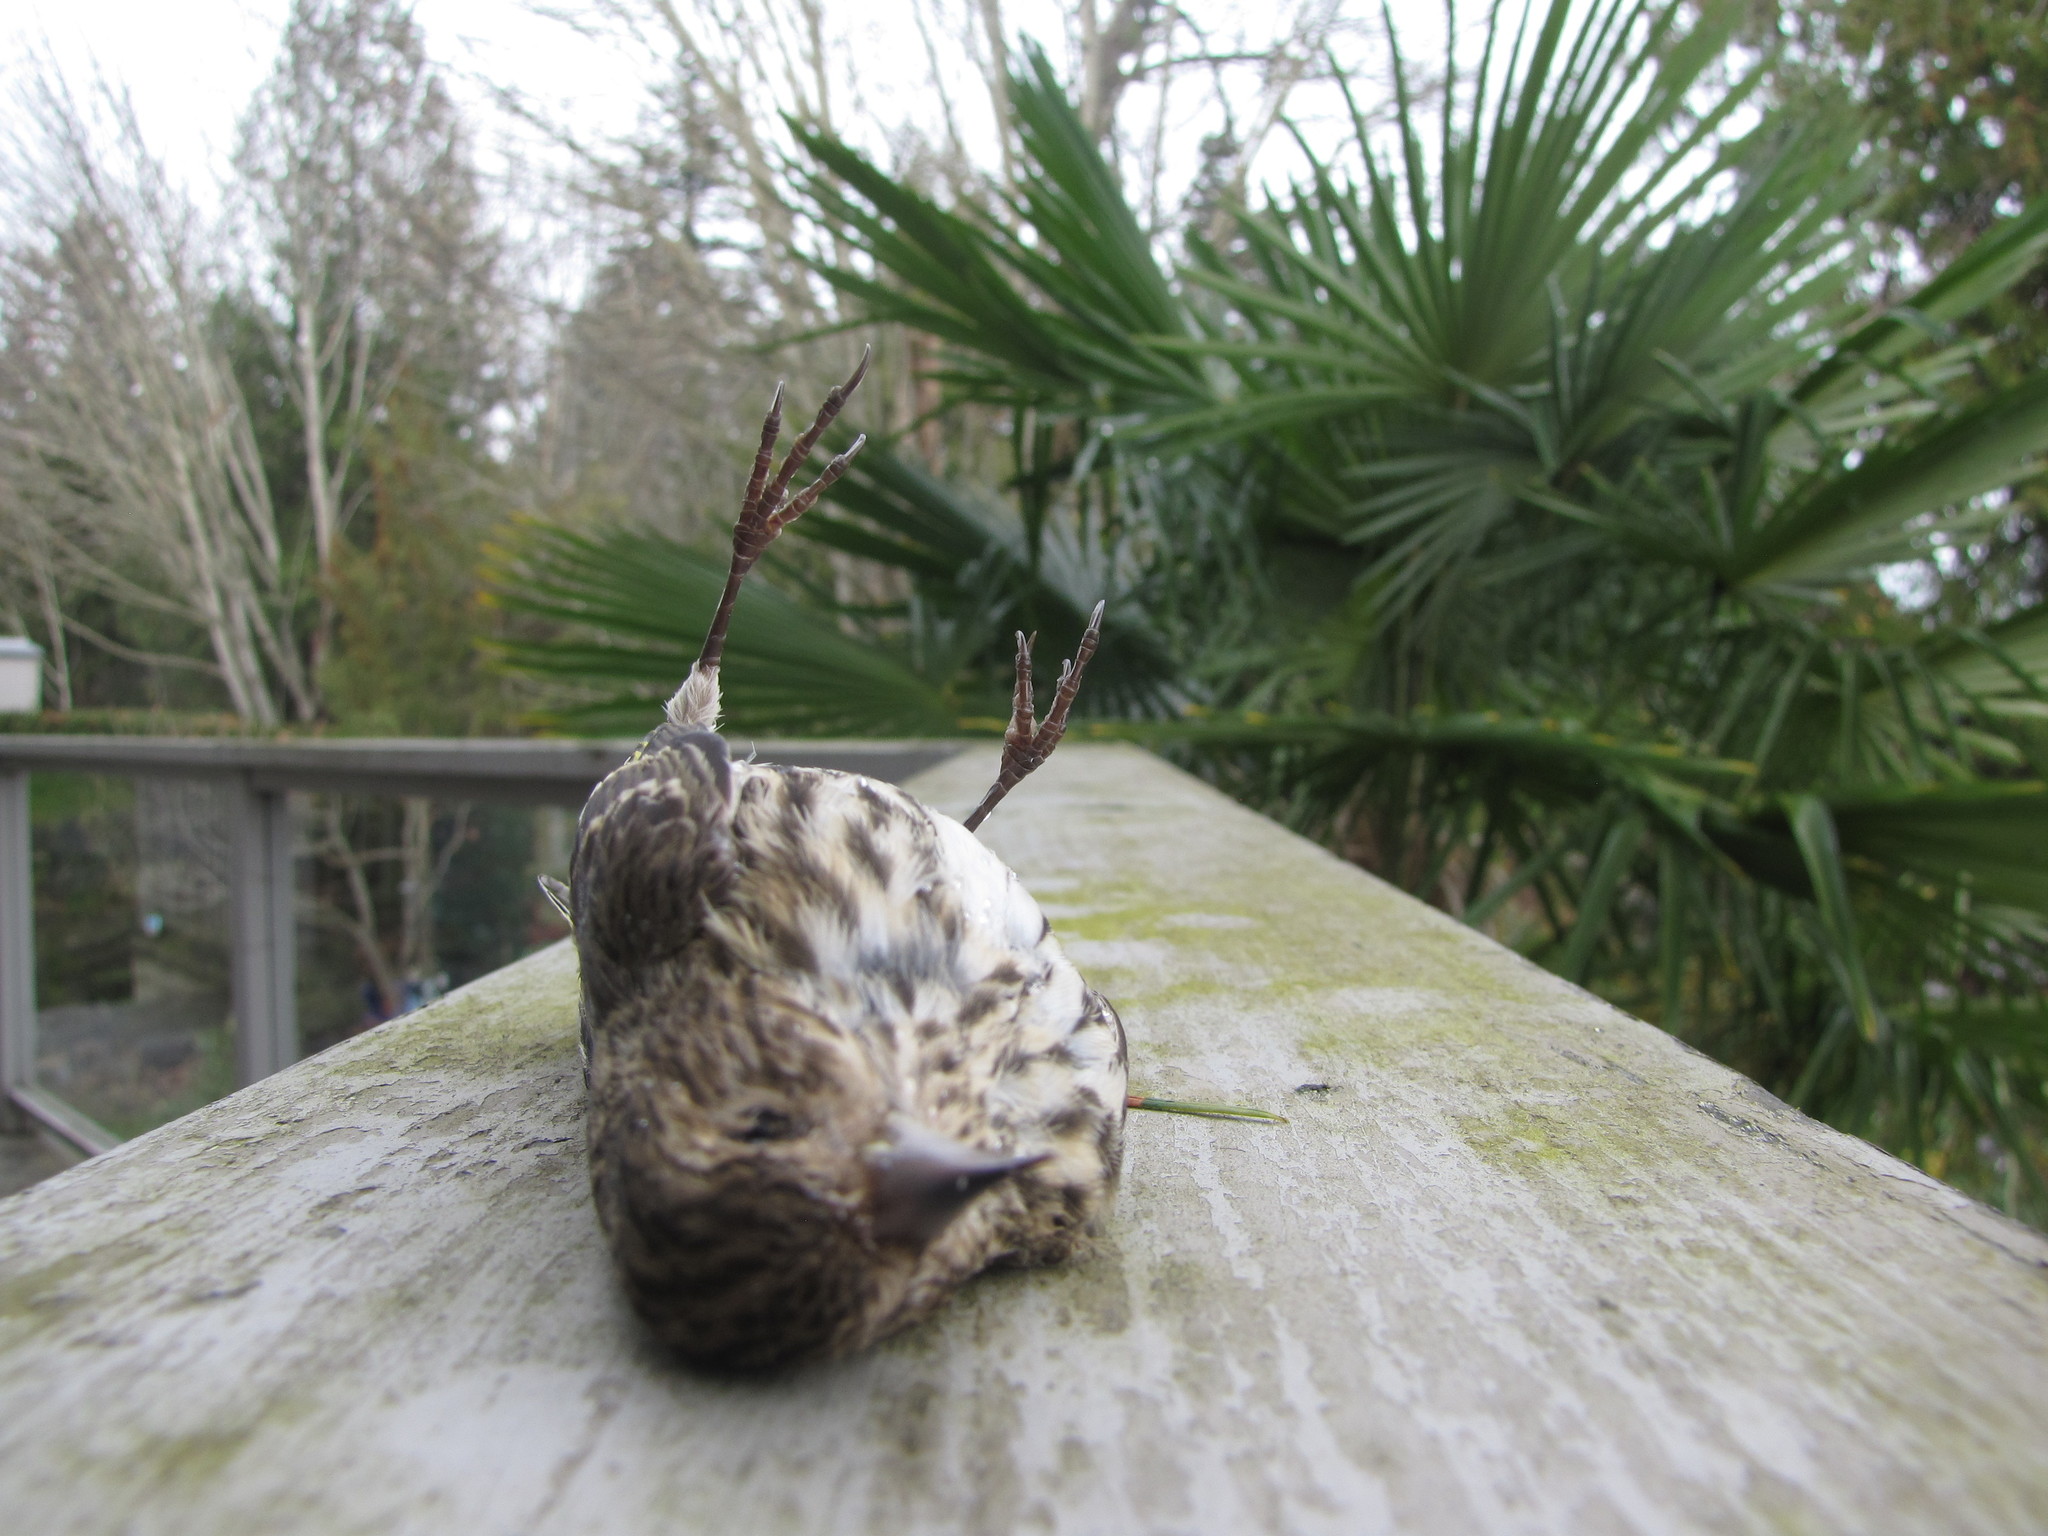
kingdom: Animalia
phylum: Chordata
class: Aves
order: Passeriformes
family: Fringillidae
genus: Spinus
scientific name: Spinus pinus
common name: Pine siskin
